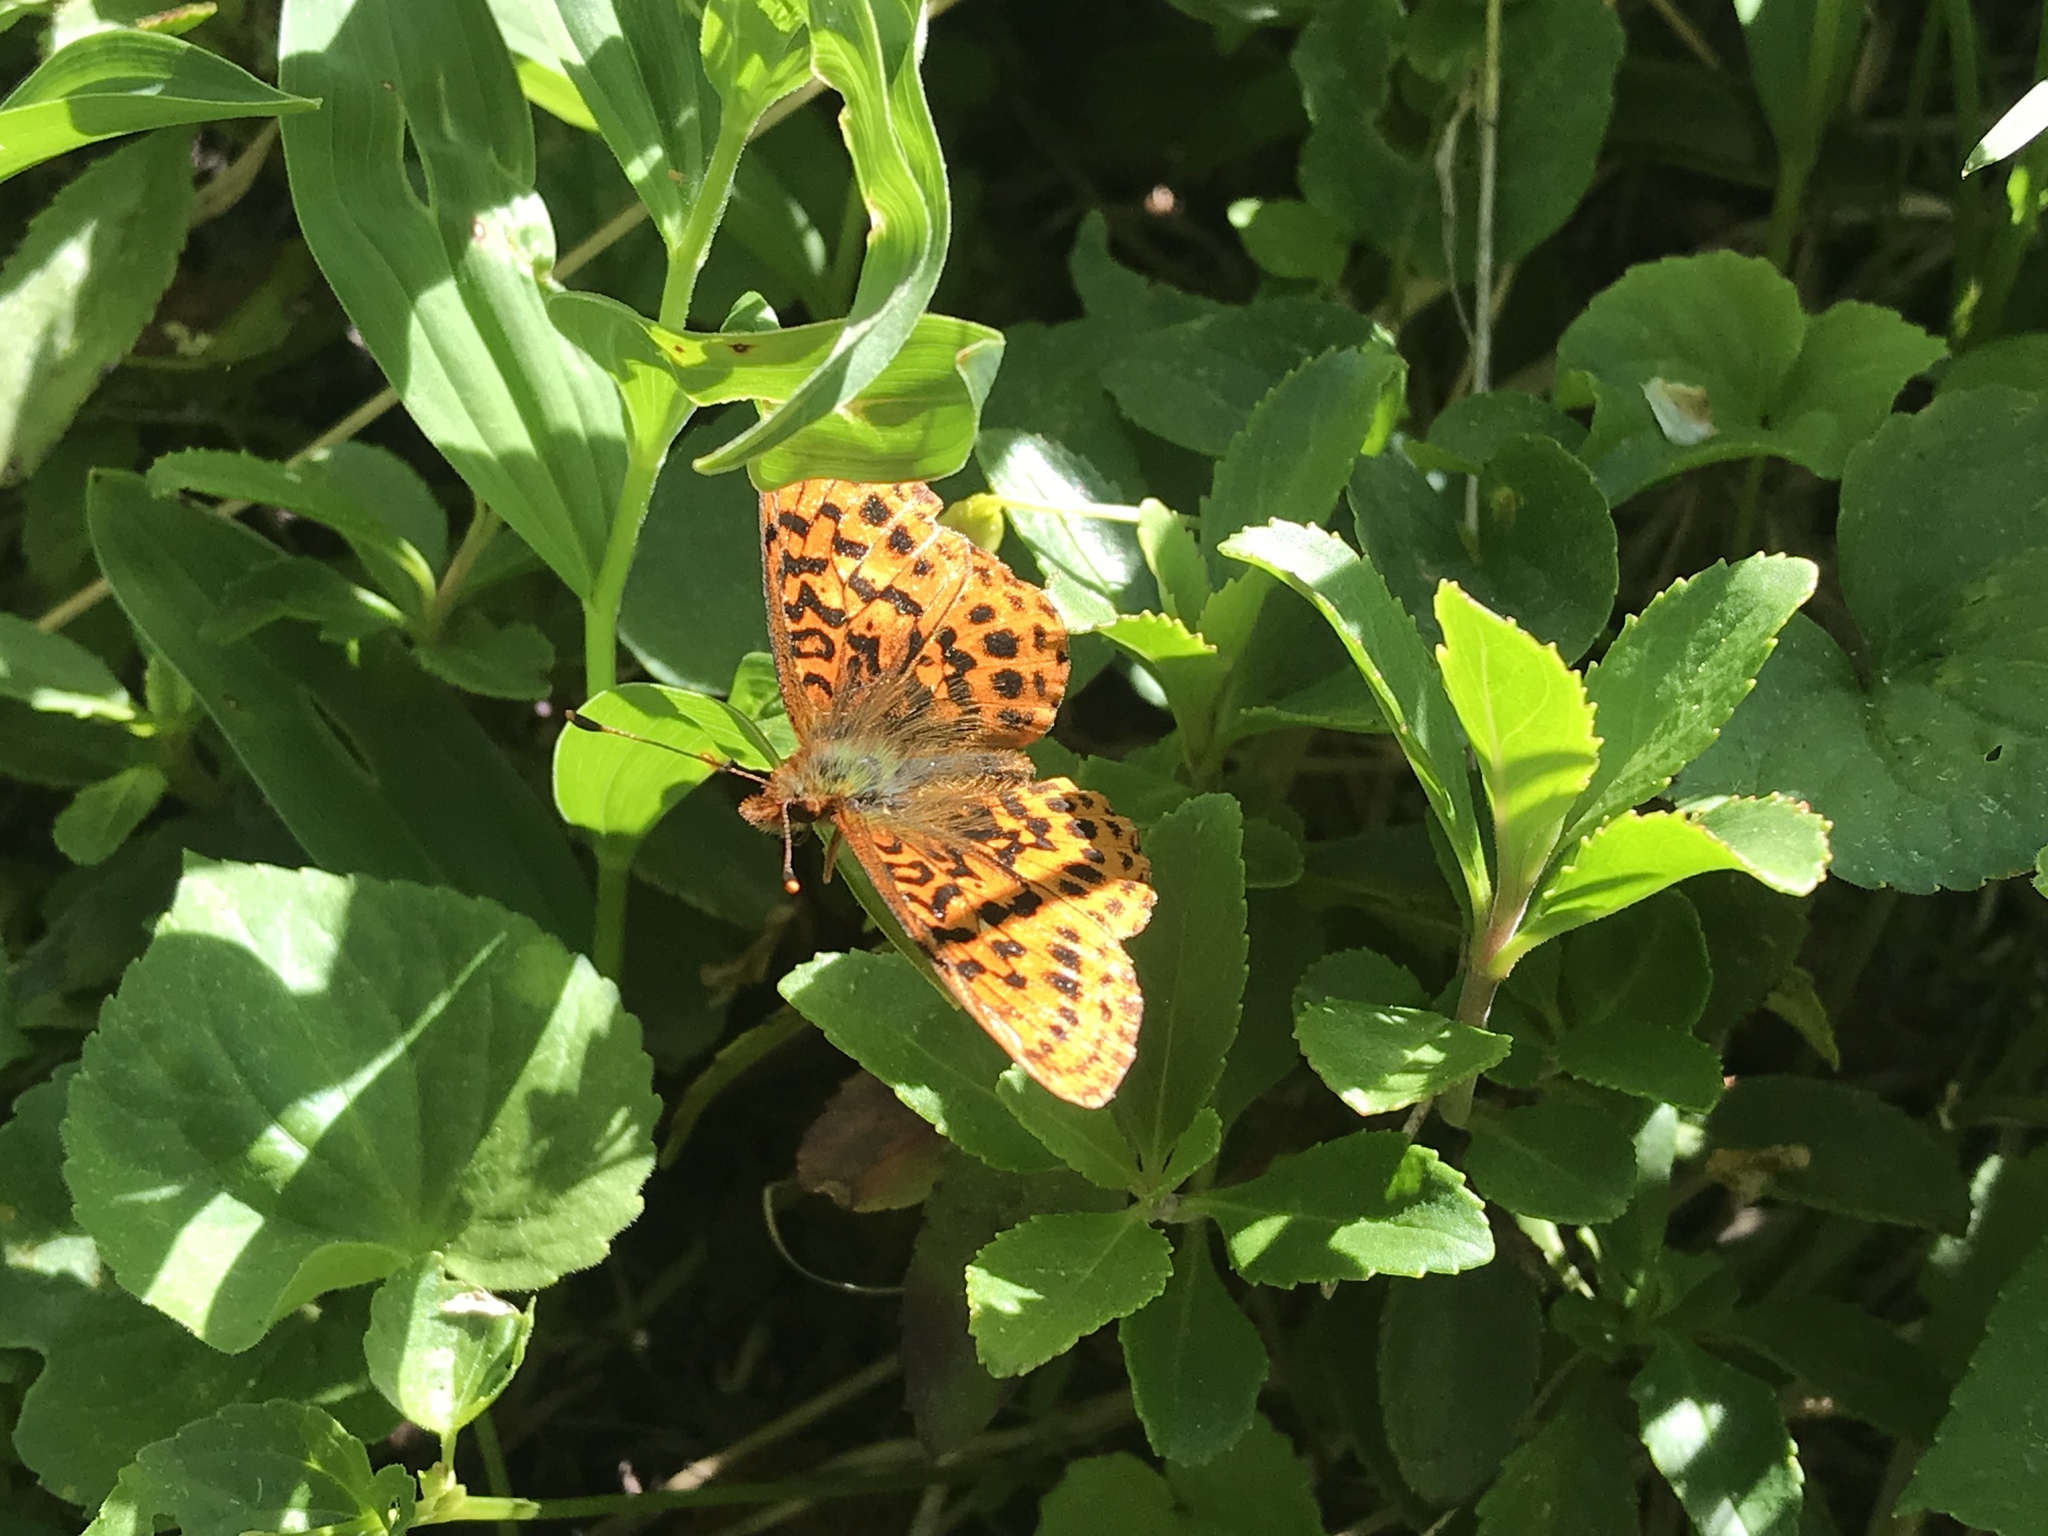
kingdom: Animalia
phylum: Arthropoda
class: Insecta
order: Lepidoptera
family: Nymphalidae
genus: Boloria
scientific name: Boloria epithore
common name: Pacific fritillary
